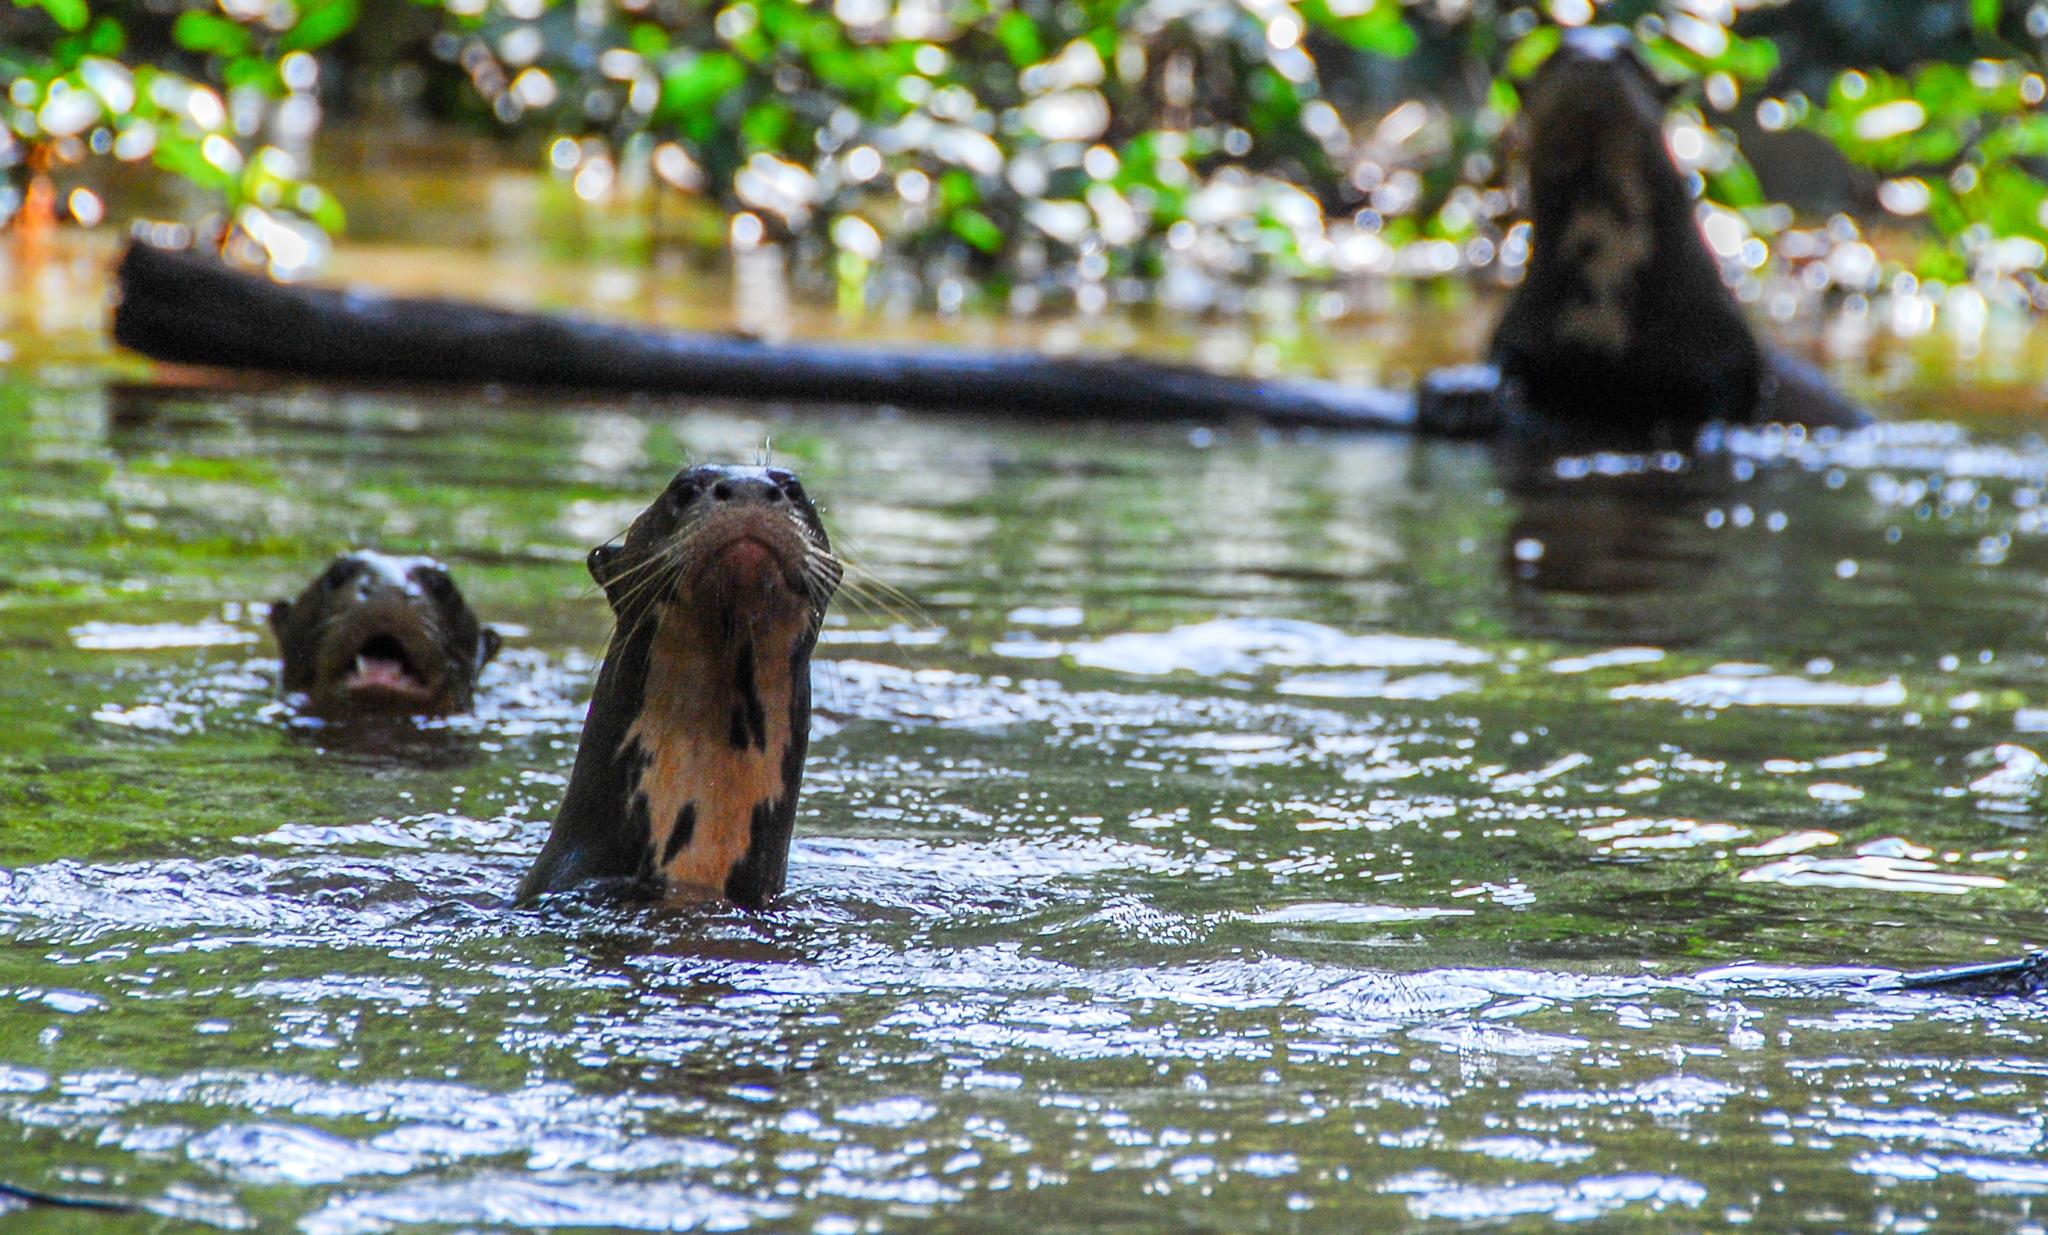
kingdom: Animalia
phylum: Chordata
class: Mammalia
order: Carnivora
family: Mustelidae
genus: Pteronura
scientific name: Pteronura brasiliensis
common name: Giant otter
